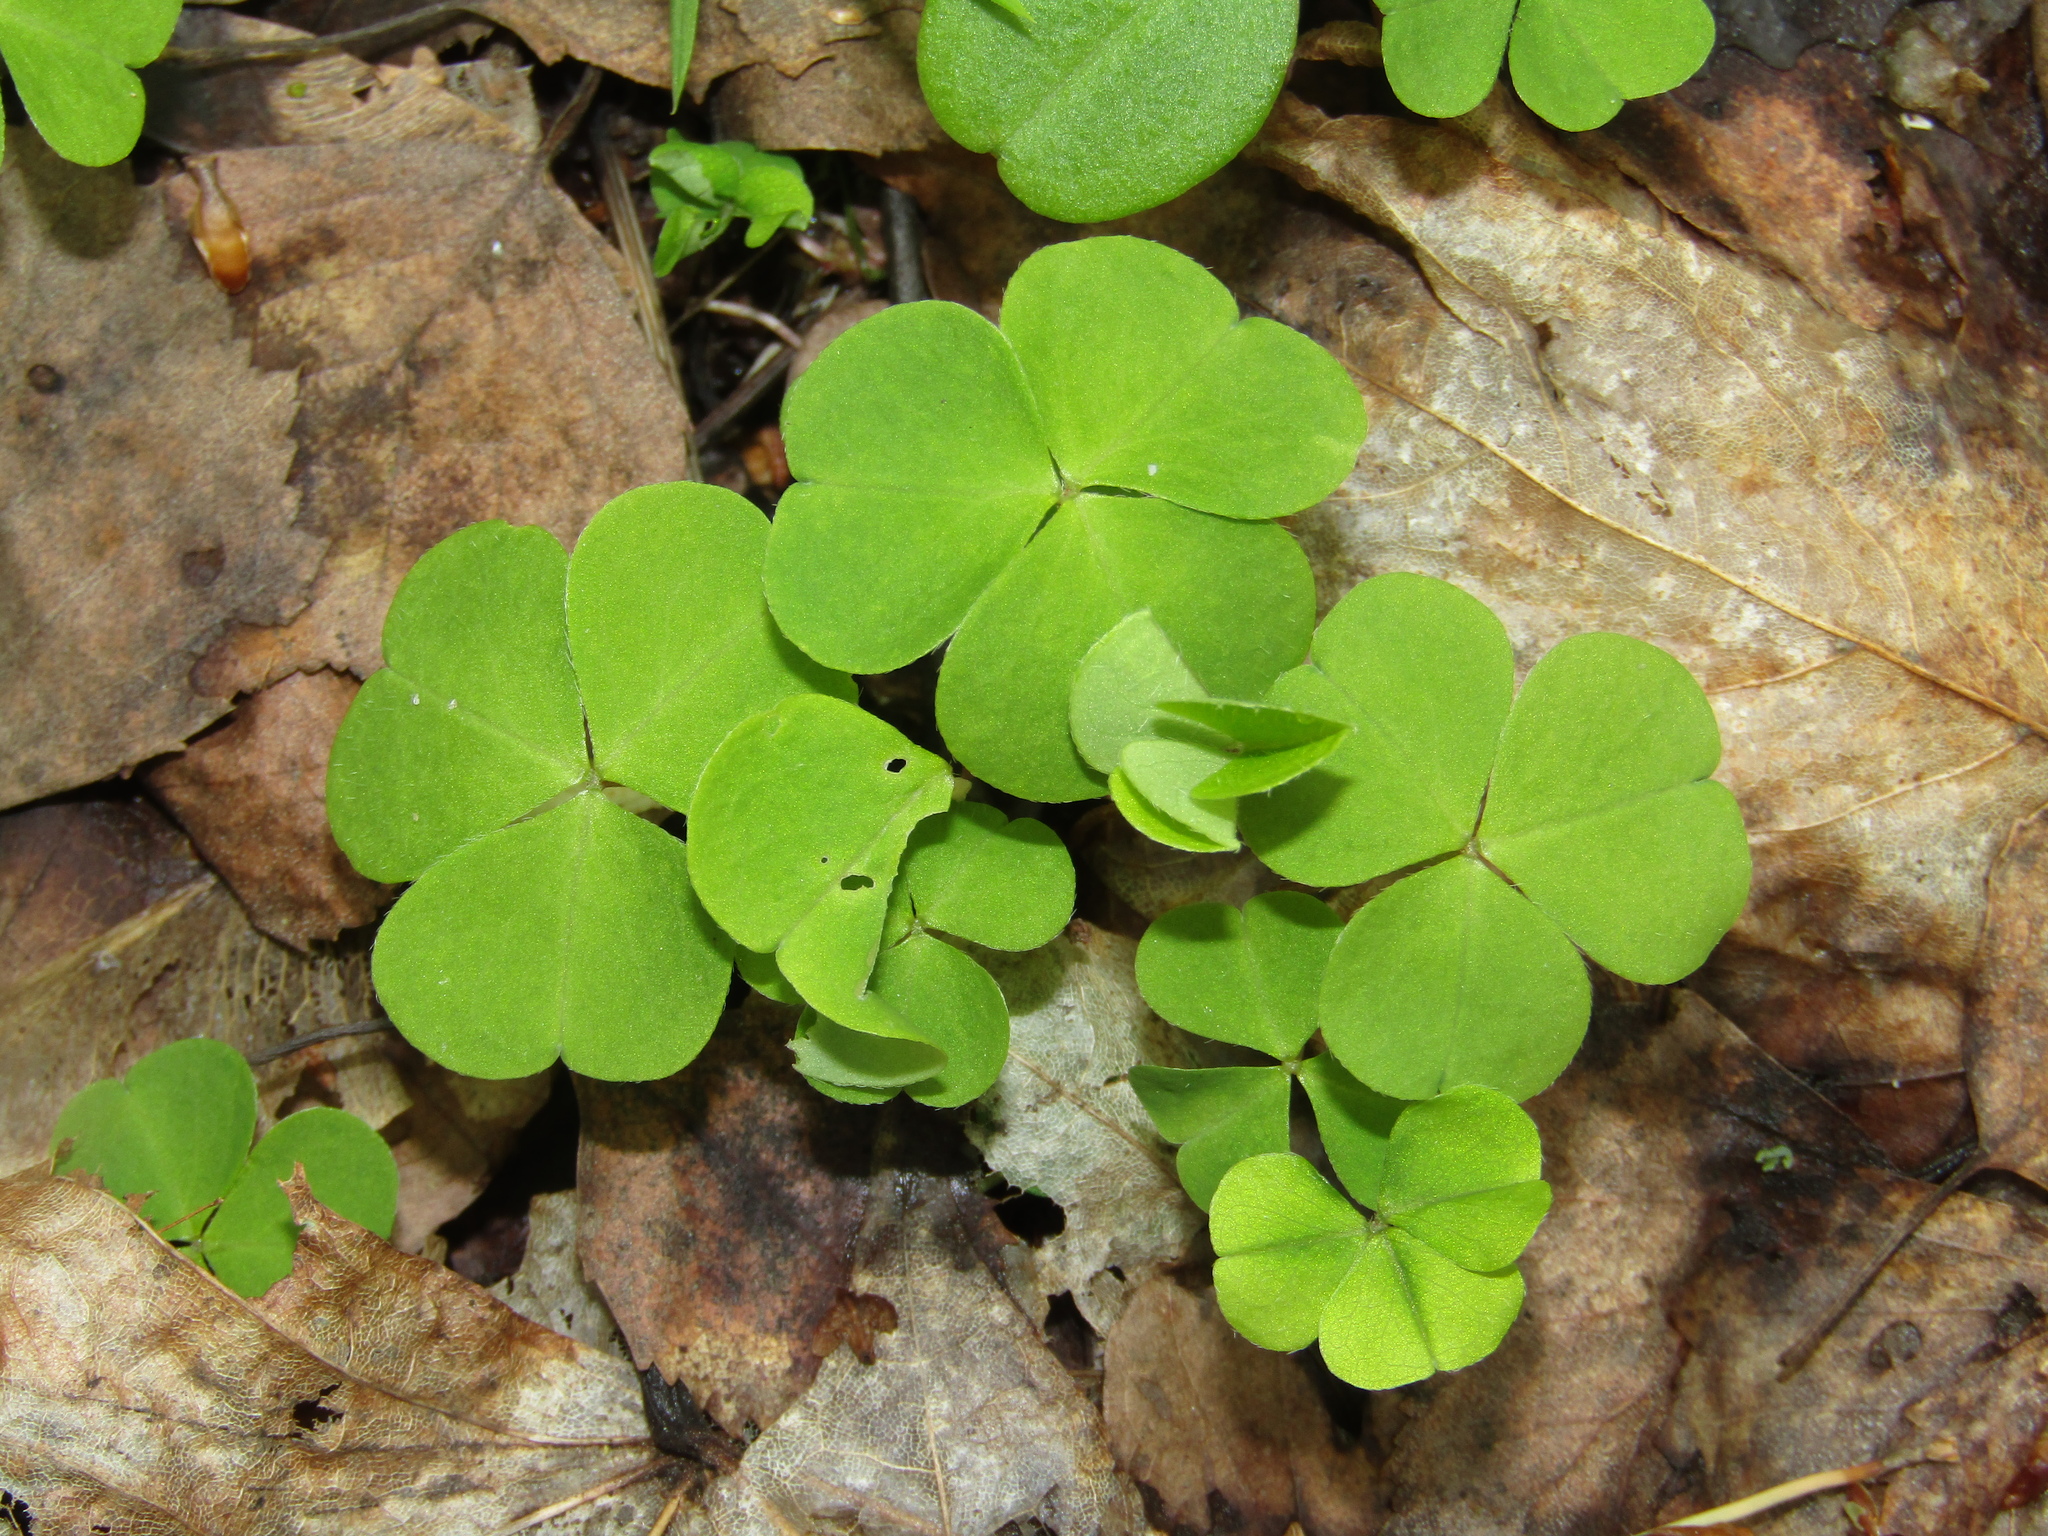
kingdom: Plantae
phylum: Tracheophyta
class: Magnoliopsida
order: Oxalidales
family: Oxalidaceae
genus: Oxalis
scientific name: Oxalis acetosella
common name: Wood-sorrel
